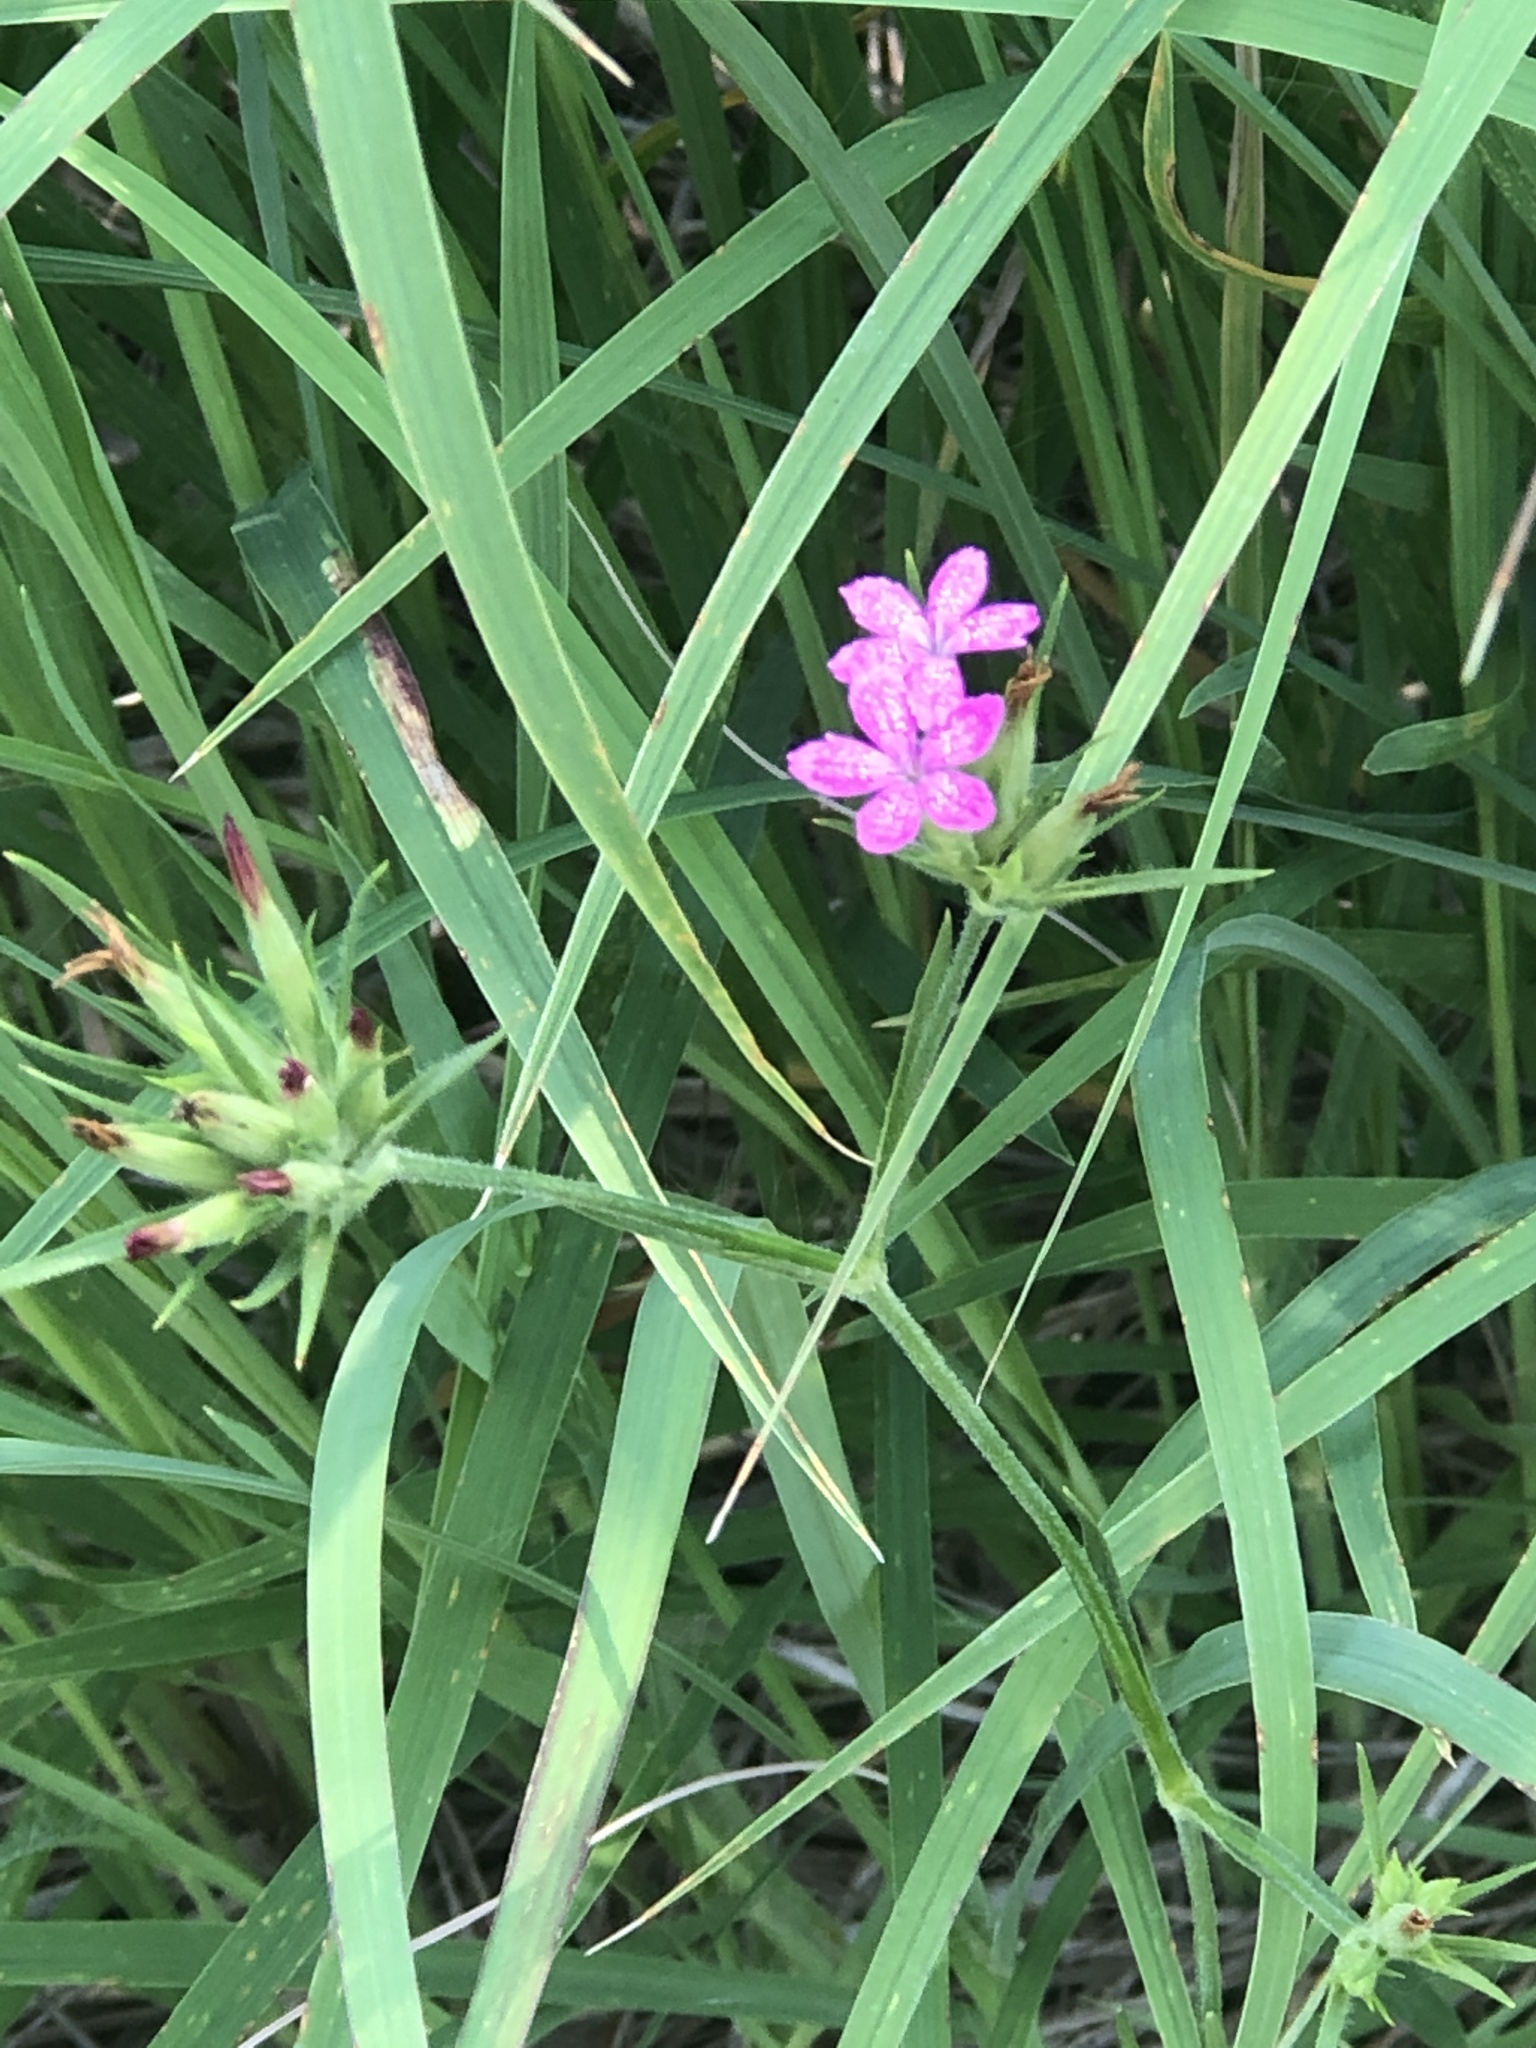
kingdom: Plantae
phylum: Tracheophyta
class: Magnoliopsida
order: Caryophyllales
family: Caryophyllaceae
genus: Dianthus
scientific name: Dianthus armeria
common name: Deptford pink
